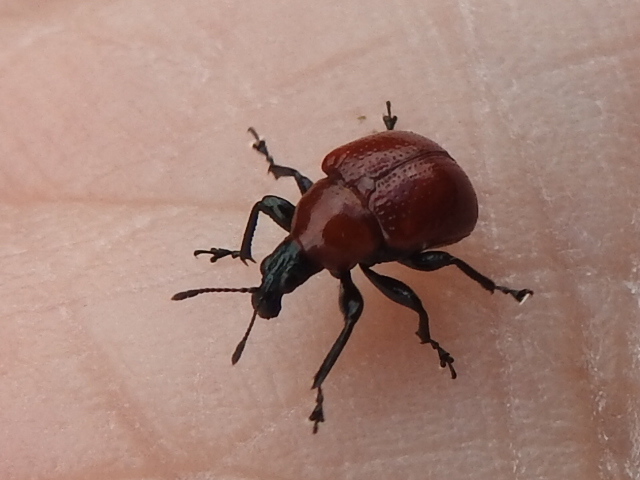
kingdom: Animalia
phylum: Arthropoda
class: Insecta
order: Coleoptera
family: Attelabidae
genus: Homoeolabus
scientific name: Homoeolabus analis
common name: Oak leaf rolling weevil
